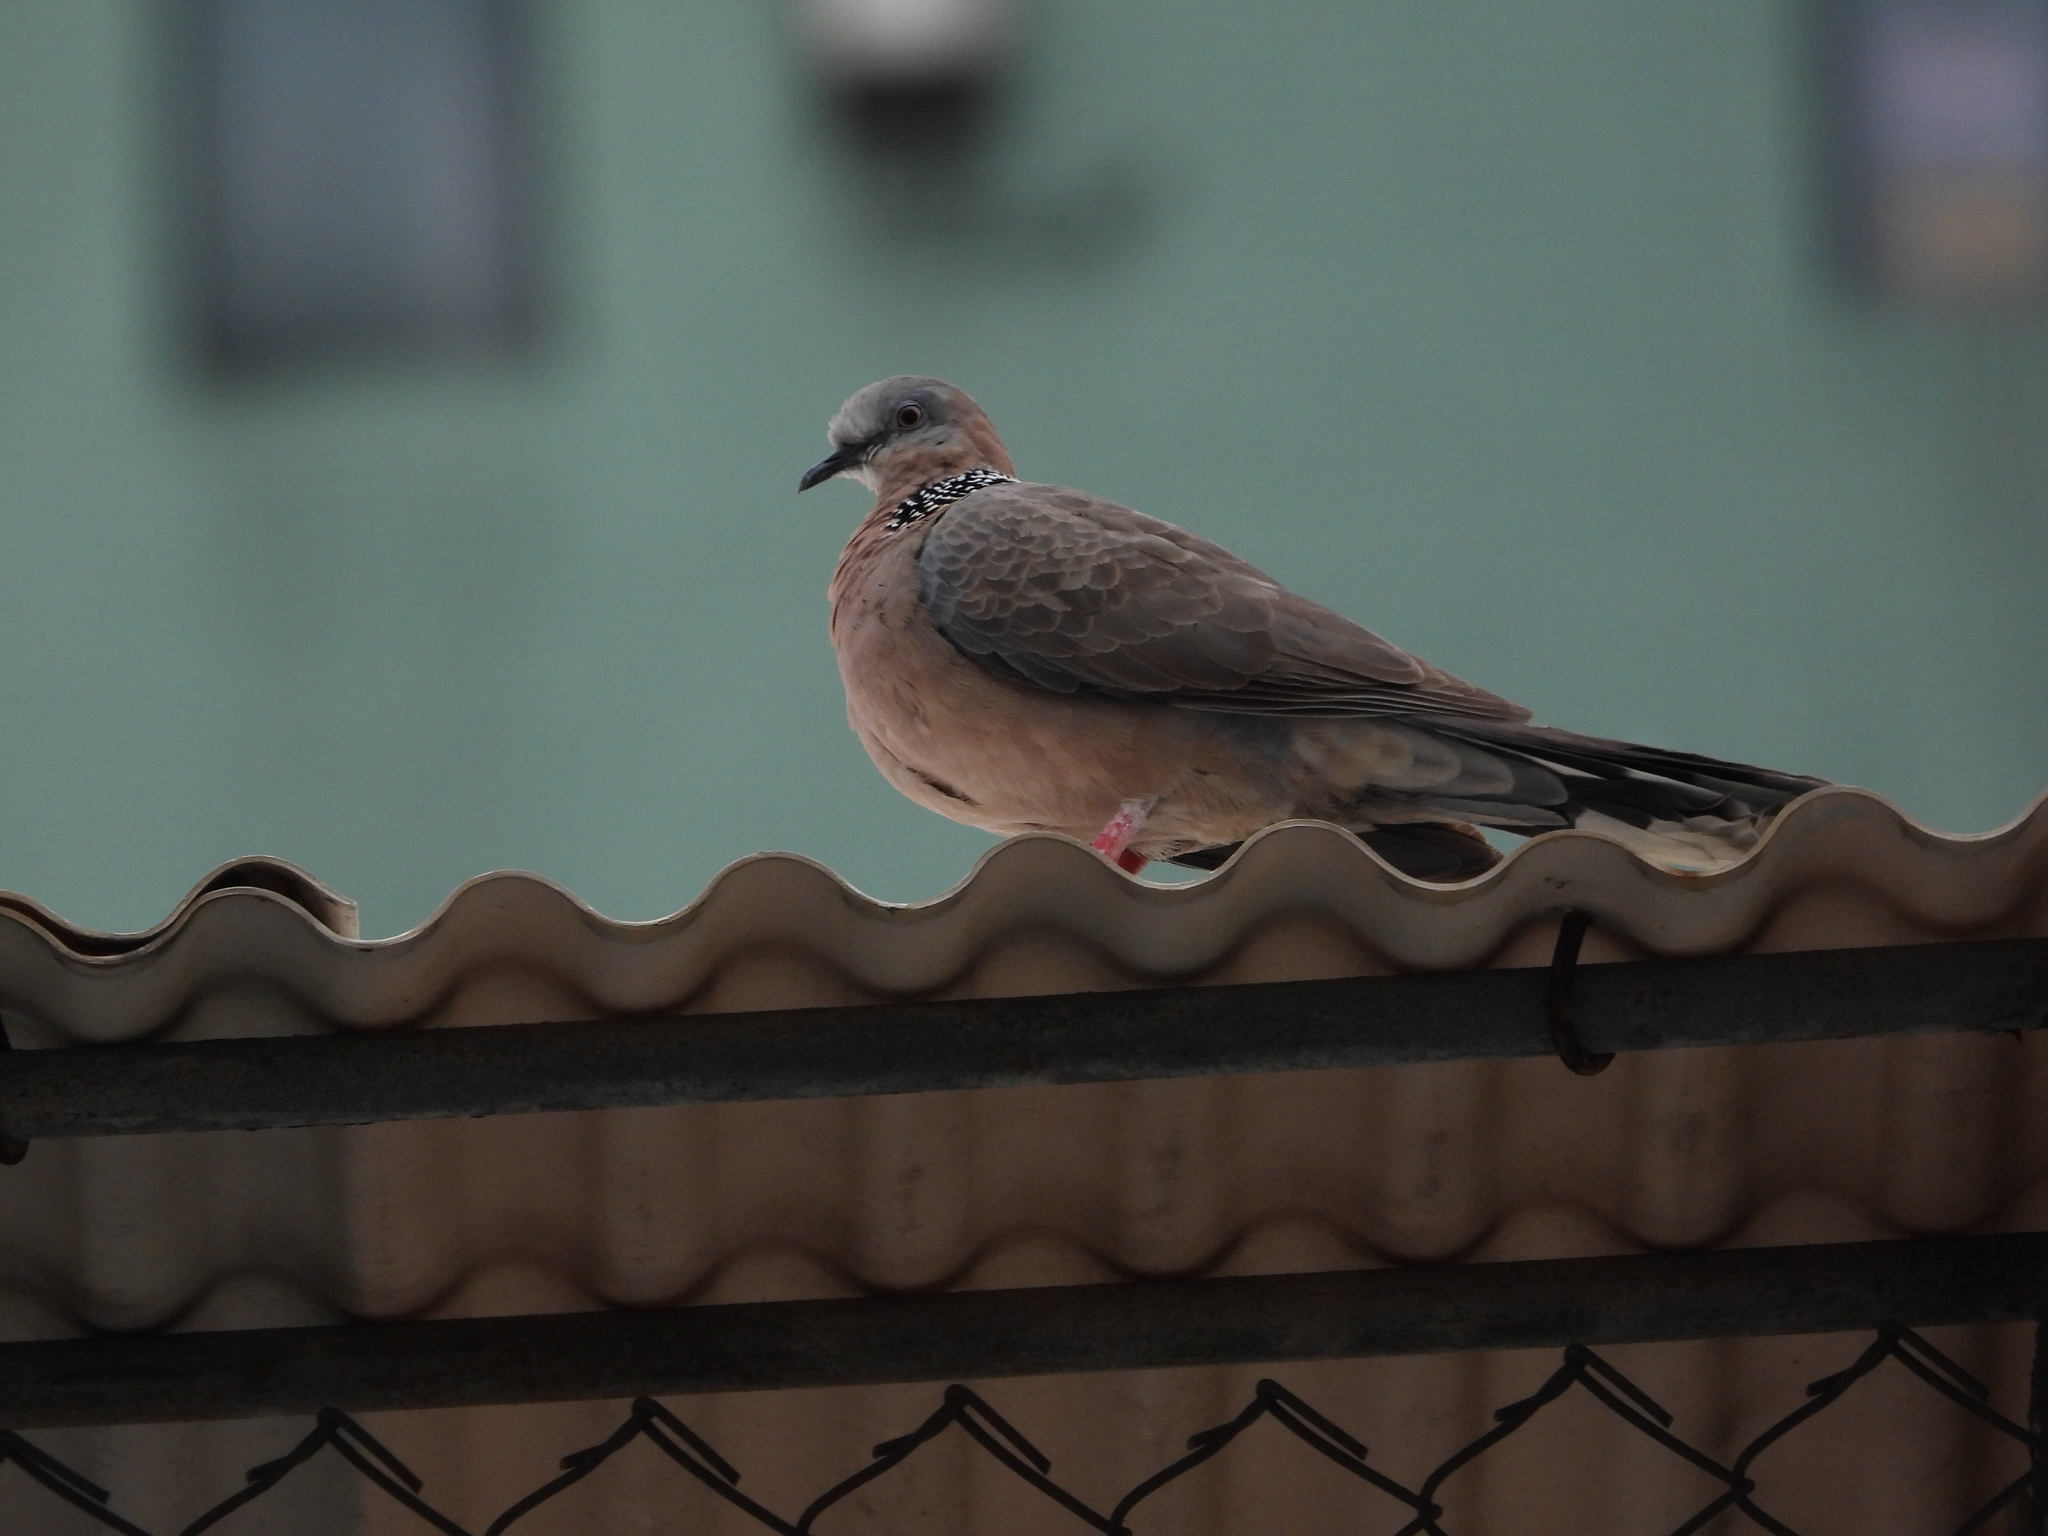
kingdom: Animalia
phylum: Chordata
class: Aves
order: Columbiformes
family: Columbidae
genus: Spilopelia
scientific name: Spilopelia chinensis
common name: Spotted dove
